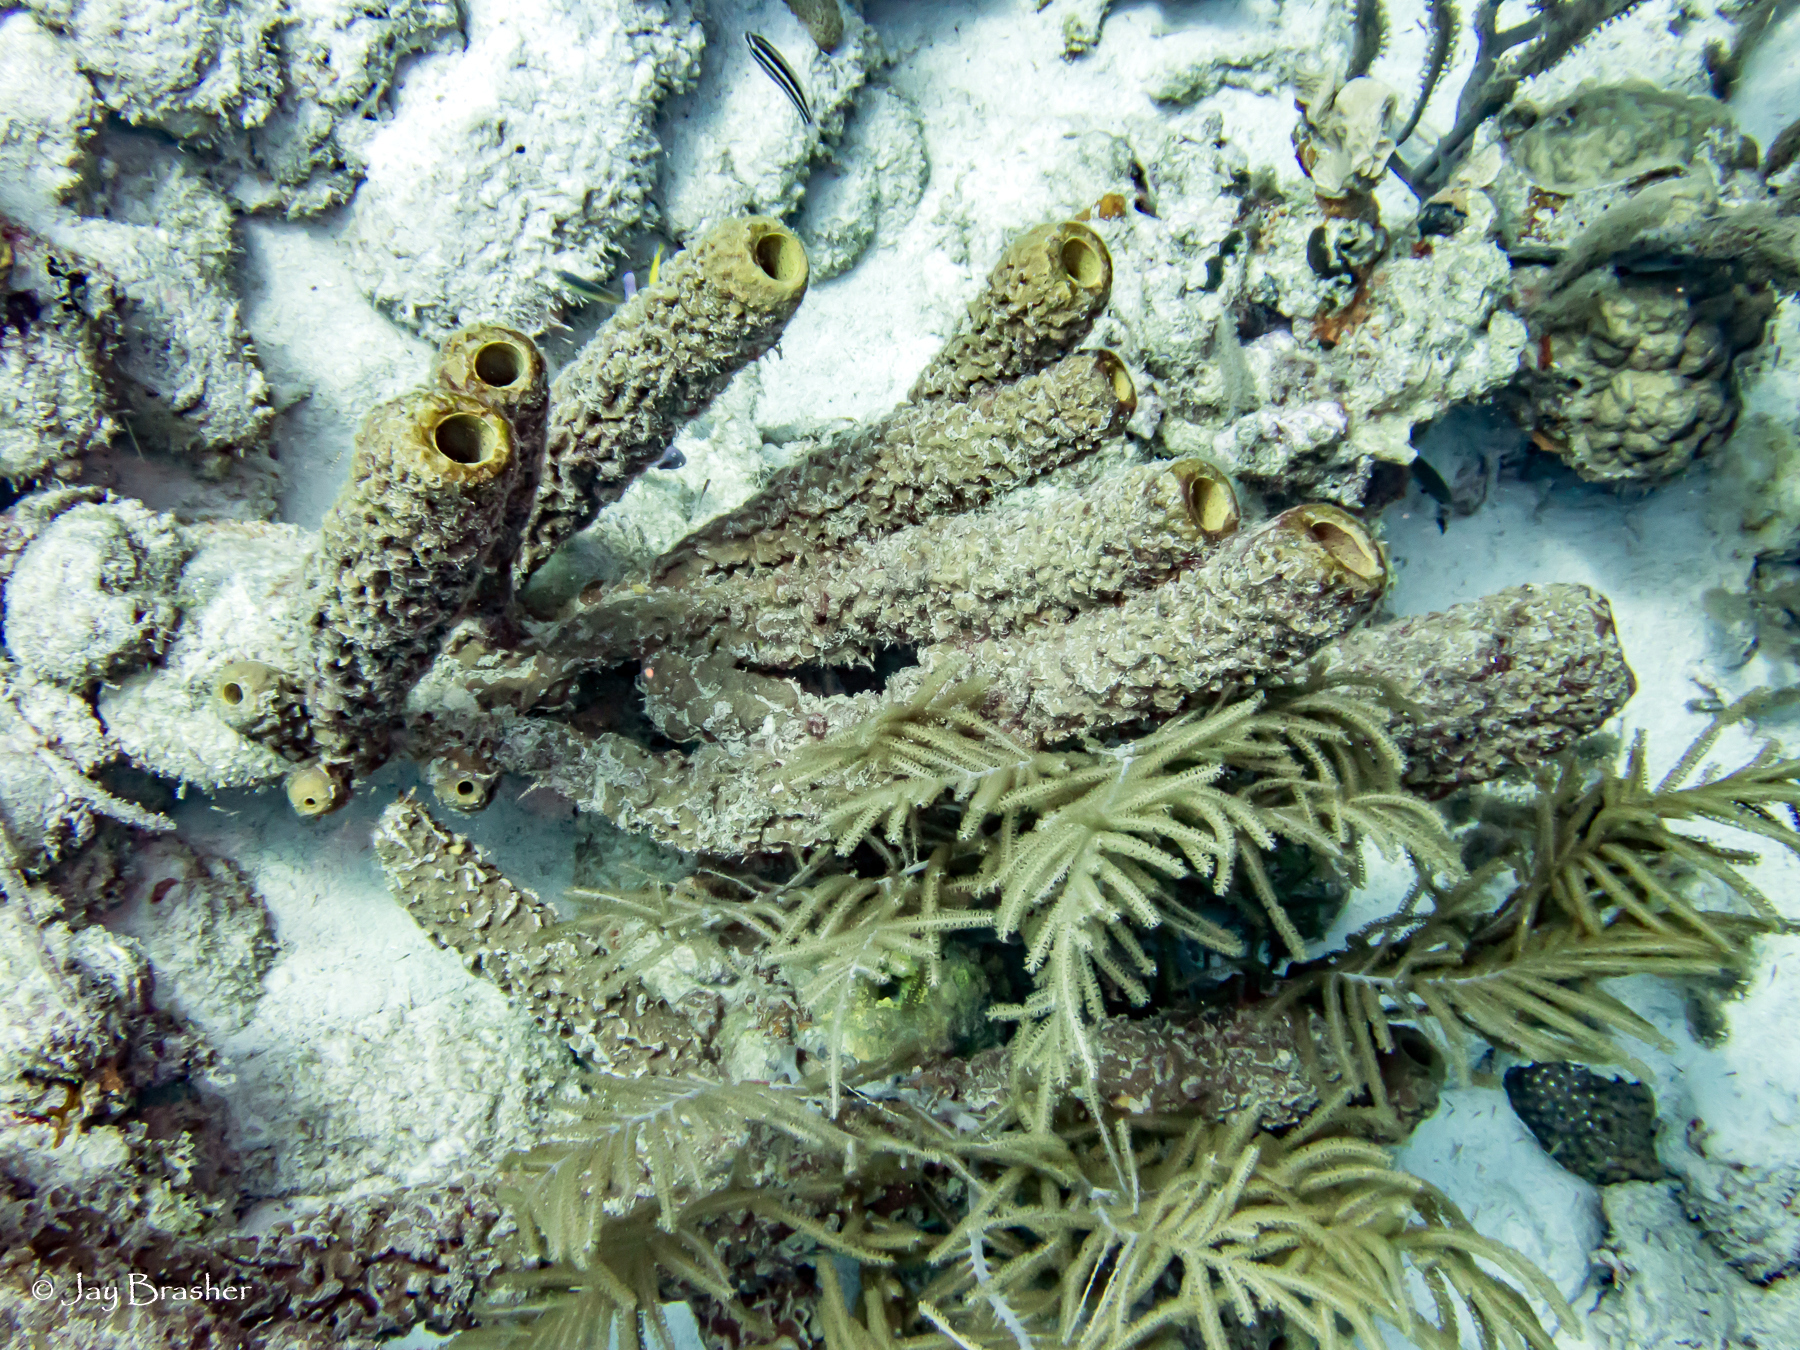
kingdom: Animalia
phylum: Porifera
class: Demospongiae
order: Verongiida
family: Aplysinidae
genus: Aplysina
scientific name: Aplysina archeri
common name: Stove-pipe sponge
